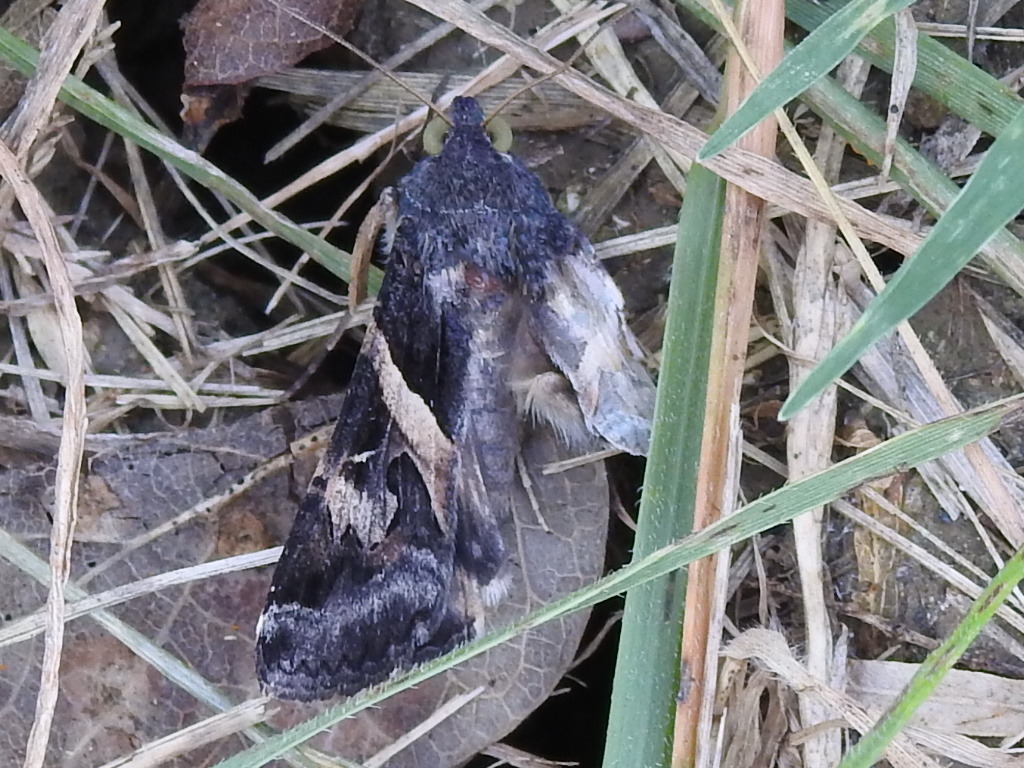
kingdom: Animalia
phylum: Arthropoda
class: Insecta
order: Lepidoptera
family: Erebidae
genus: Melipotis
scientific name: Melipotis indomita
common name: Moth
